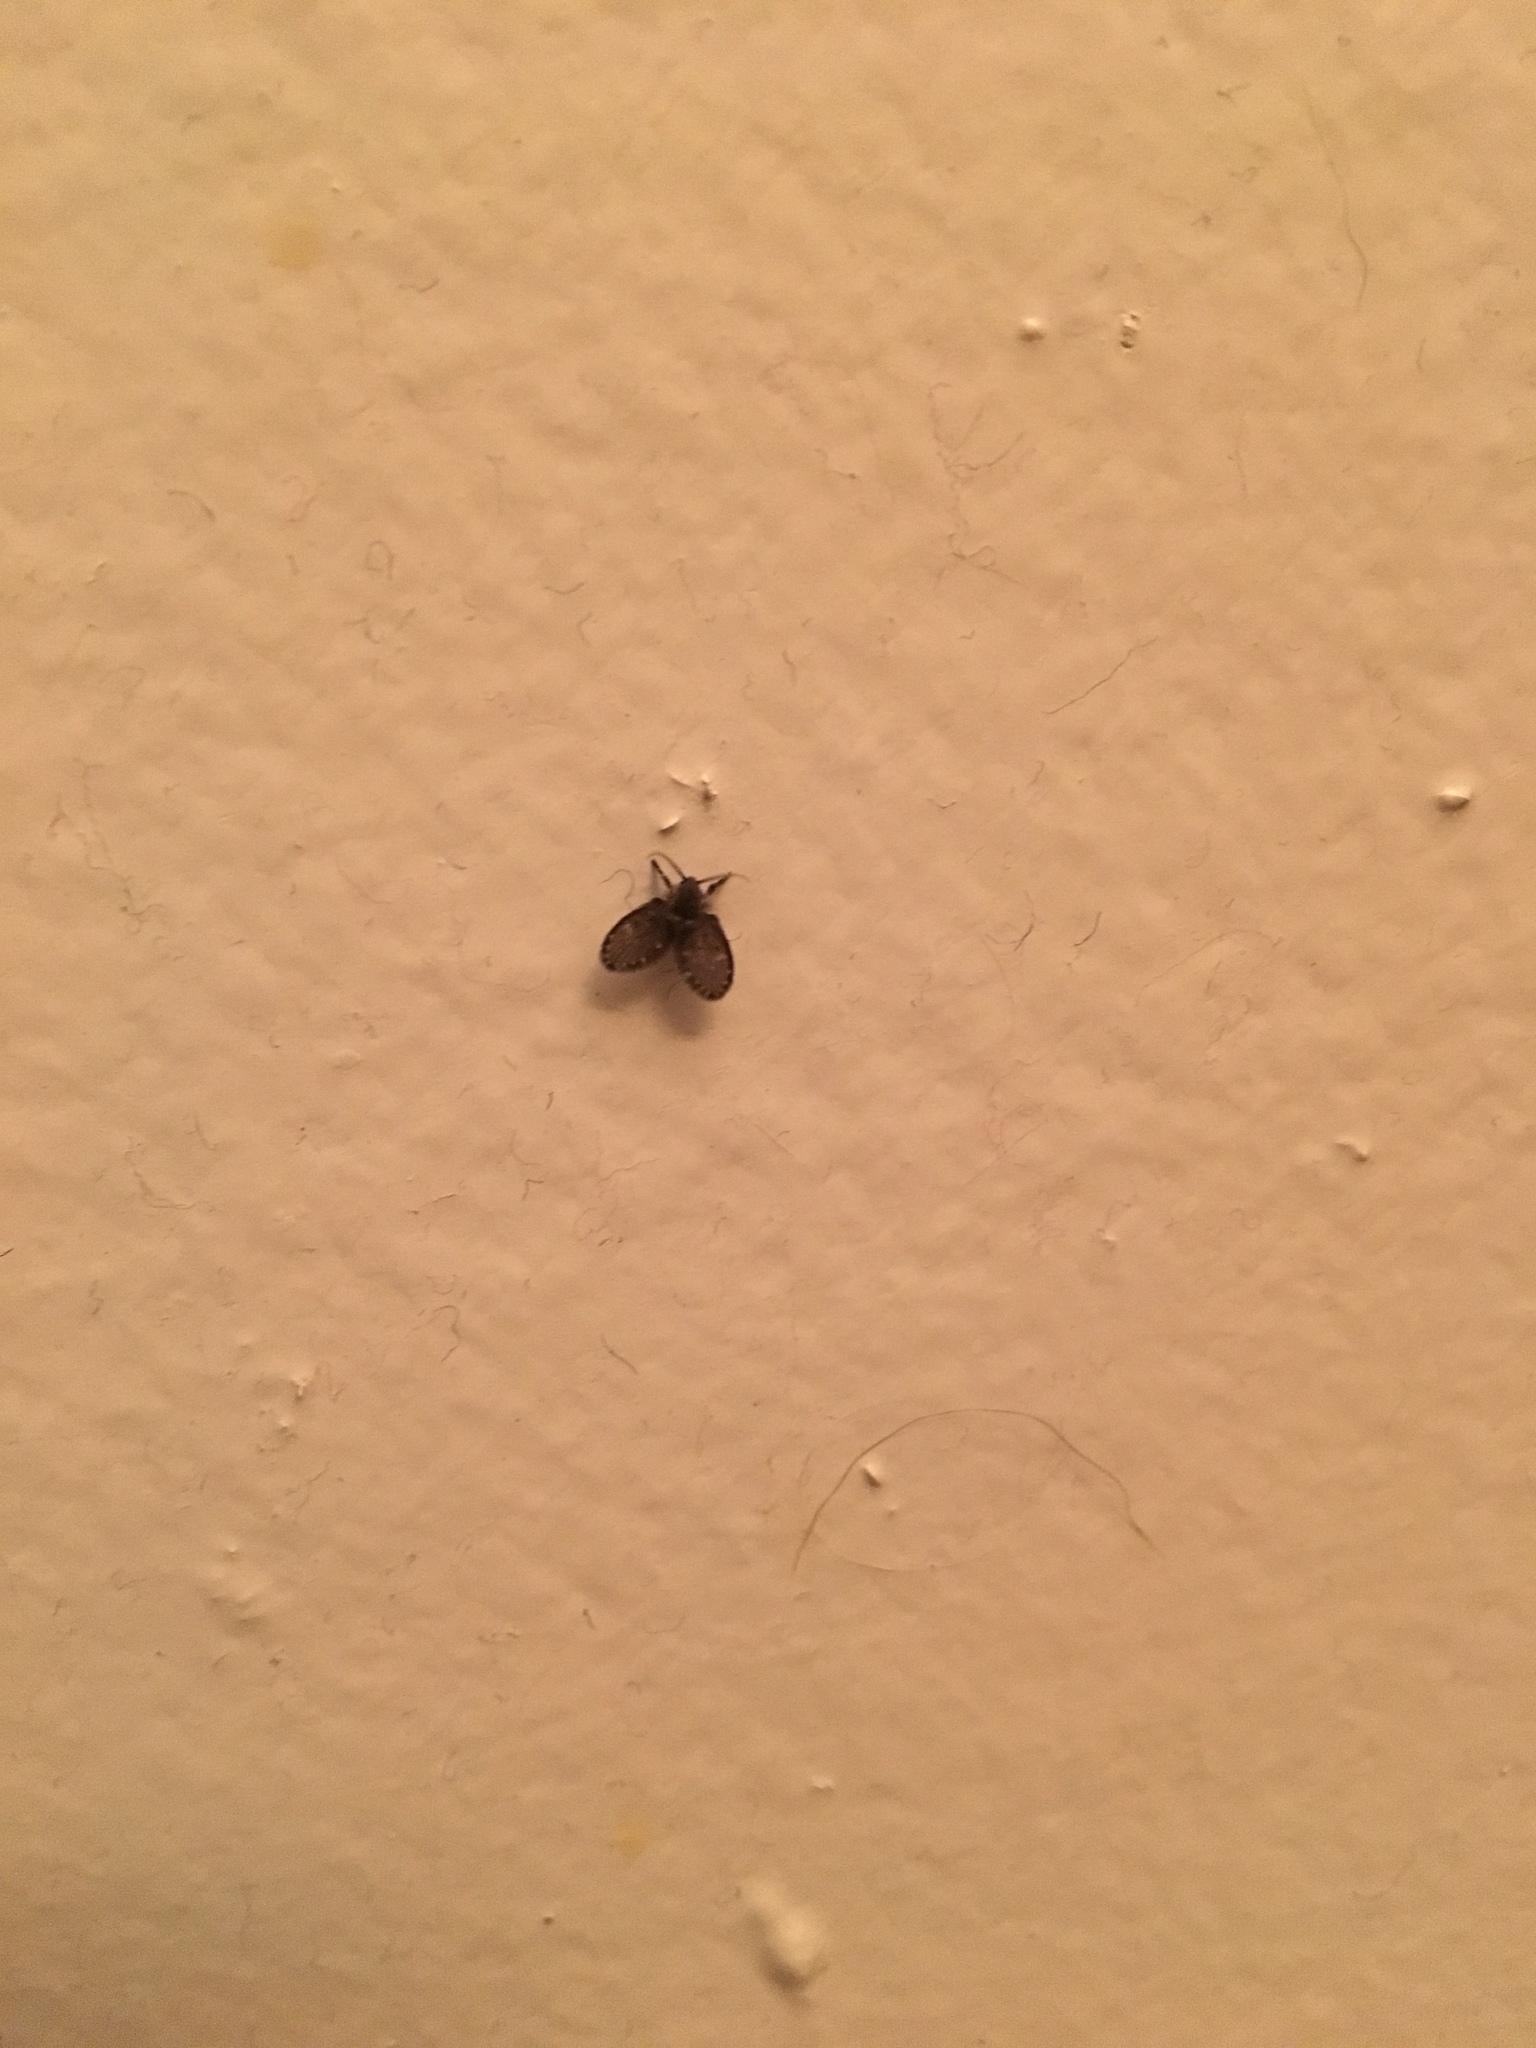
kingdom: Animalia
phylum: Arthropoda
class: Insecta
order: Diptera
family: Psychodidae
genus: Clogmia
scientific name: Clogmia albipunctatus
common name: White-spotted moth fly
